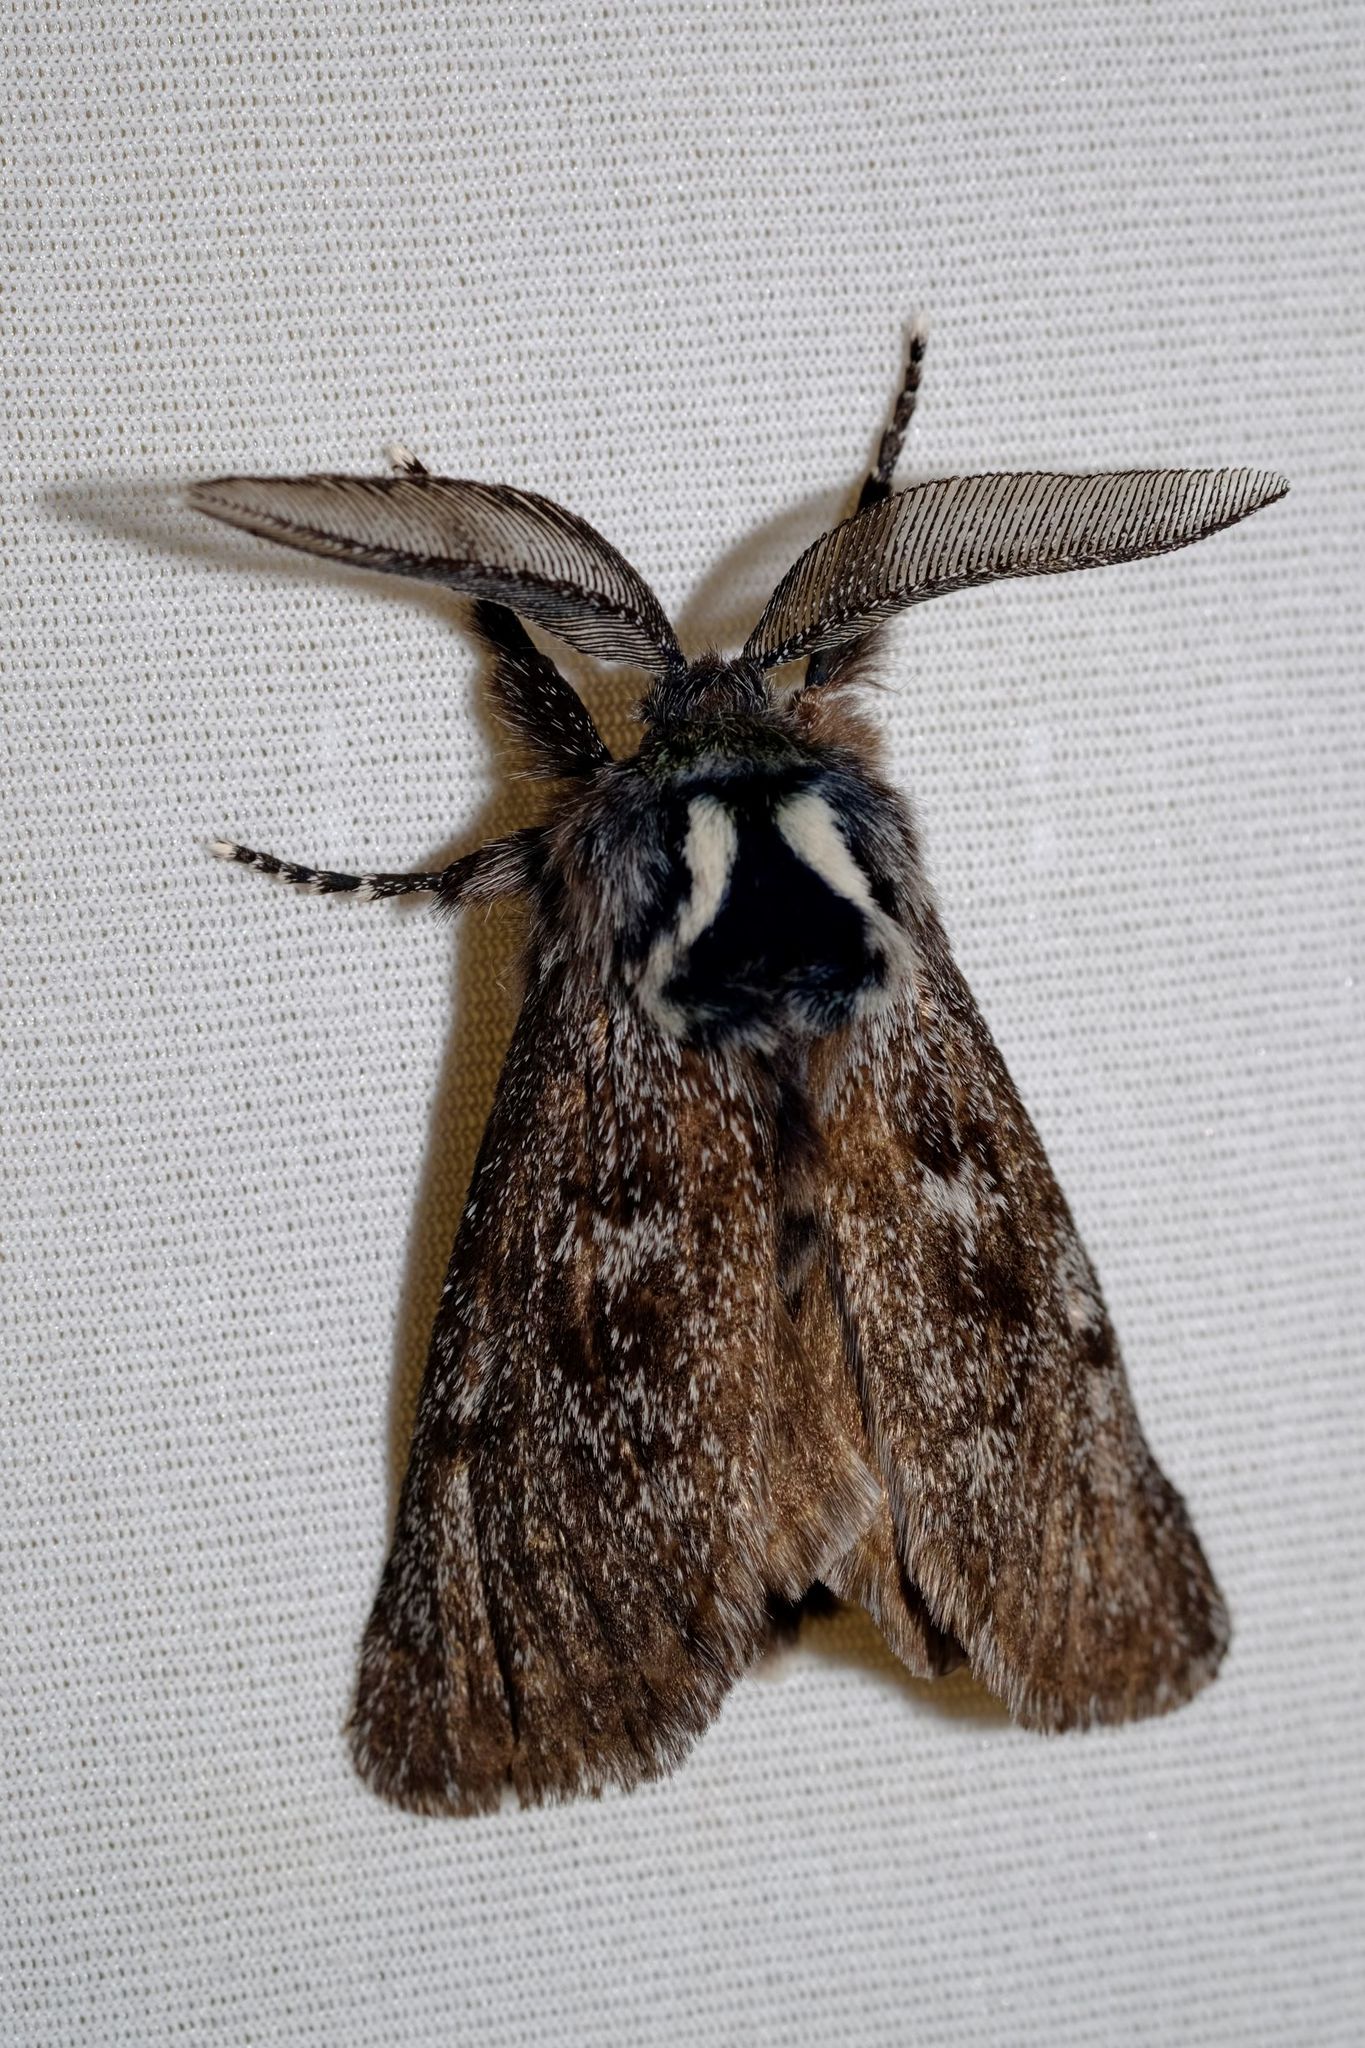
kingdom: Animalia
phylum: Arthropoda
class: Insecta
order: Lepidoptera
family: Cossidae
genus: Ptilomacra
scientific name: Ptilomacra senex
